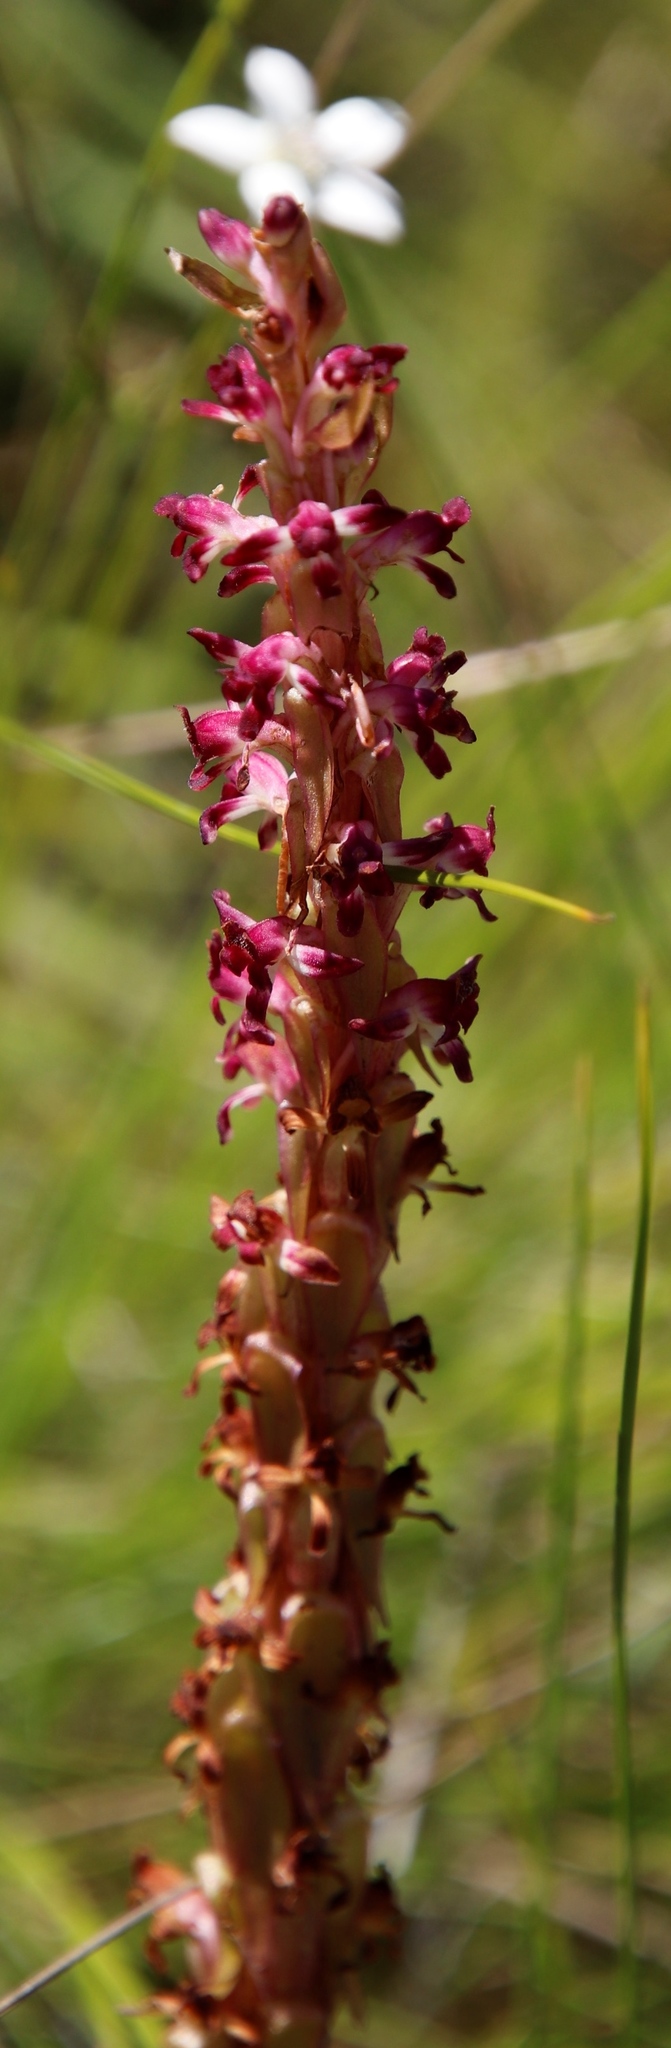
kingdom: Plantae
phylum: Tracheophyta
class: Liliopsida
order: Asparagales
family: Orchidaceae
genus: Satyrium
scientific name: Satyrium longicauda
